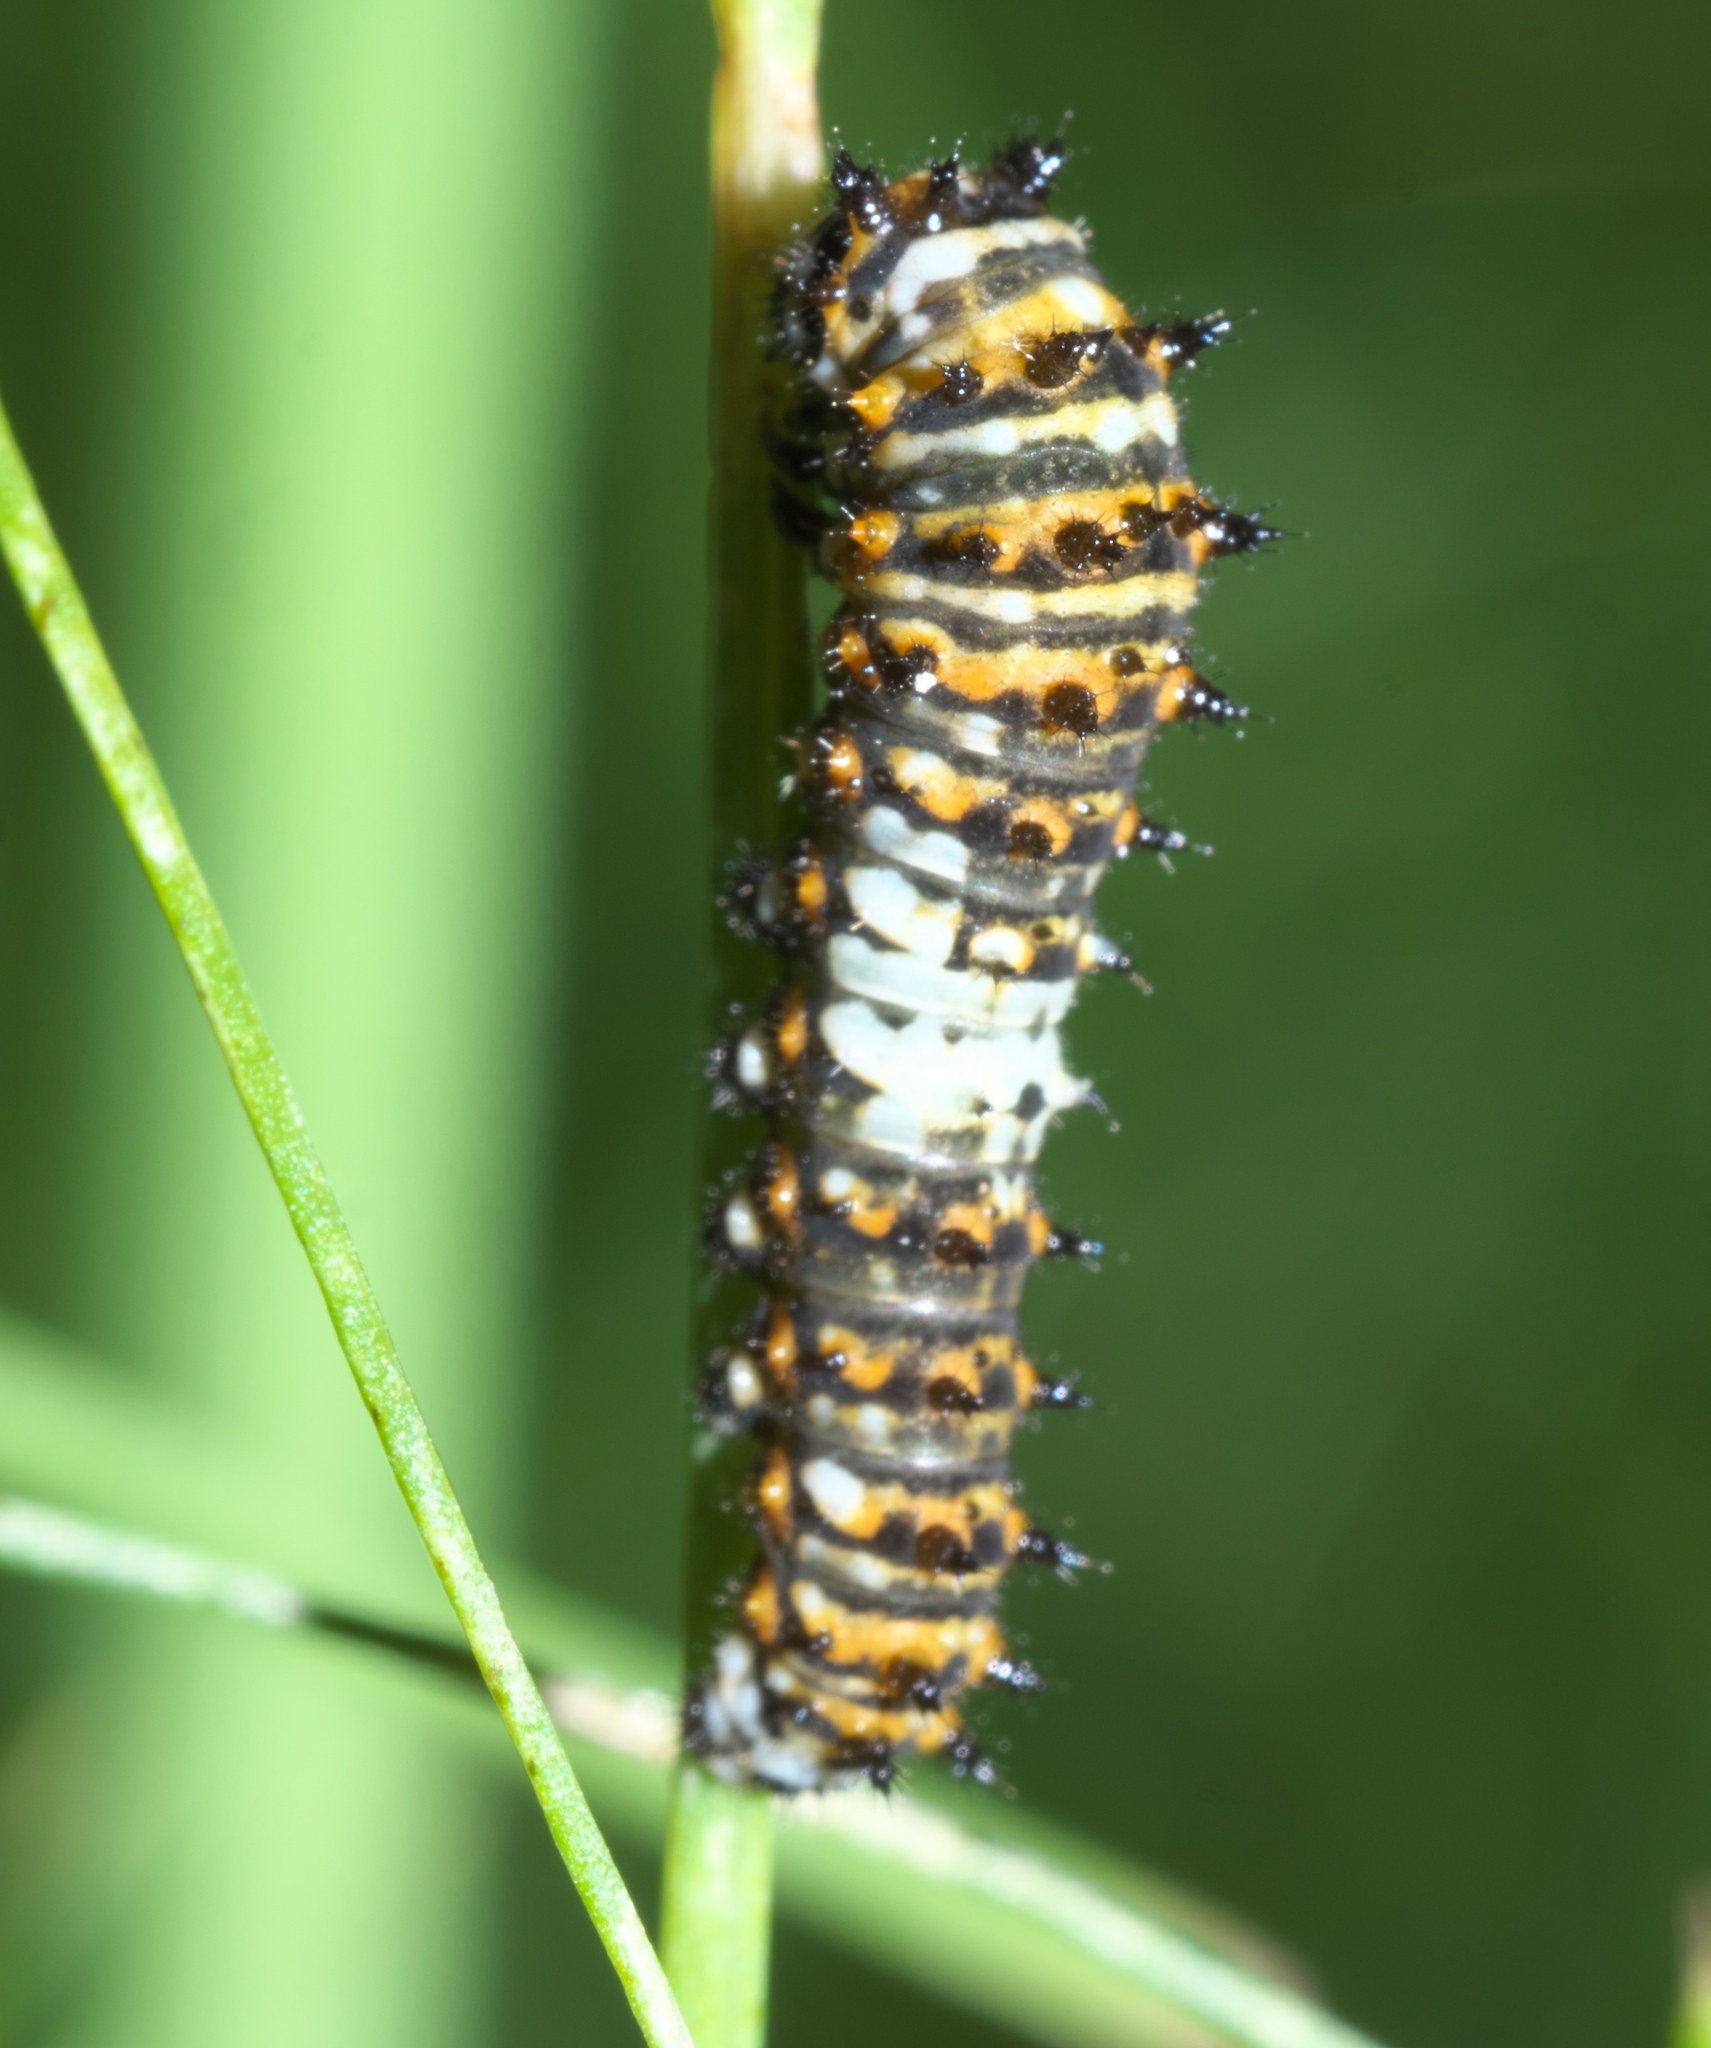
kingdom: Animalia
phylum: Arthropoda
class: Insecta
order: Lepidoptera
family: Papilionidae
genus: Papilio
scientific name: Papilio polyxenes
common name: Black swallowtail
